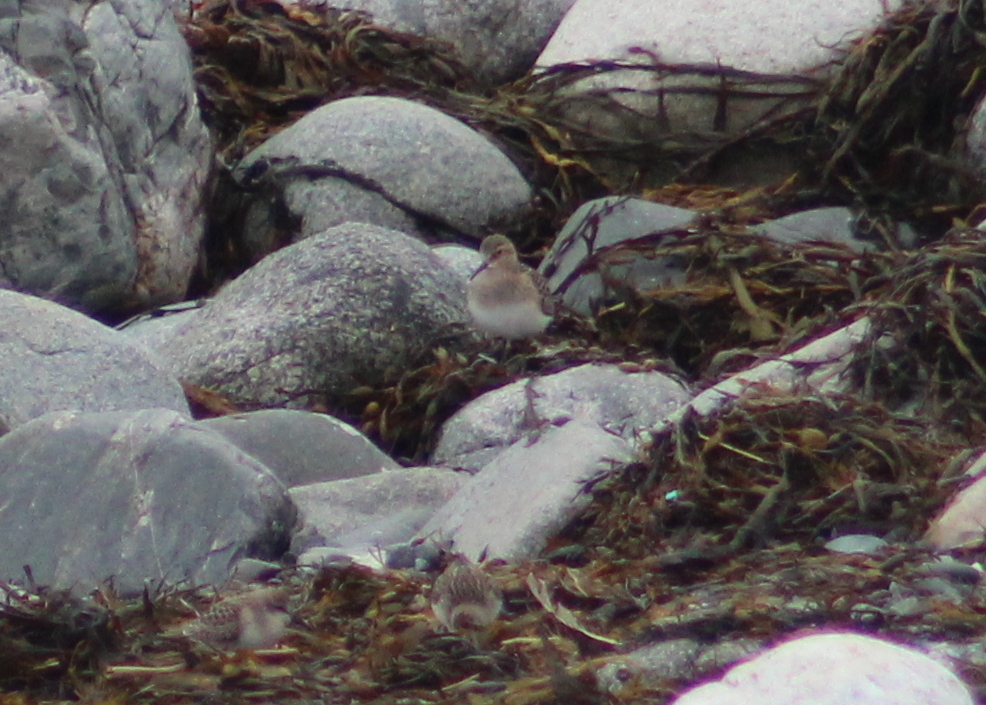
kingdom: Animalia
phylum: Chordata
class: Aves
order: Charadriiformes
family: Scolopacidae
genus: Calidris
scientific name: Calidris bairdii
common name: Baird's sandpiper
